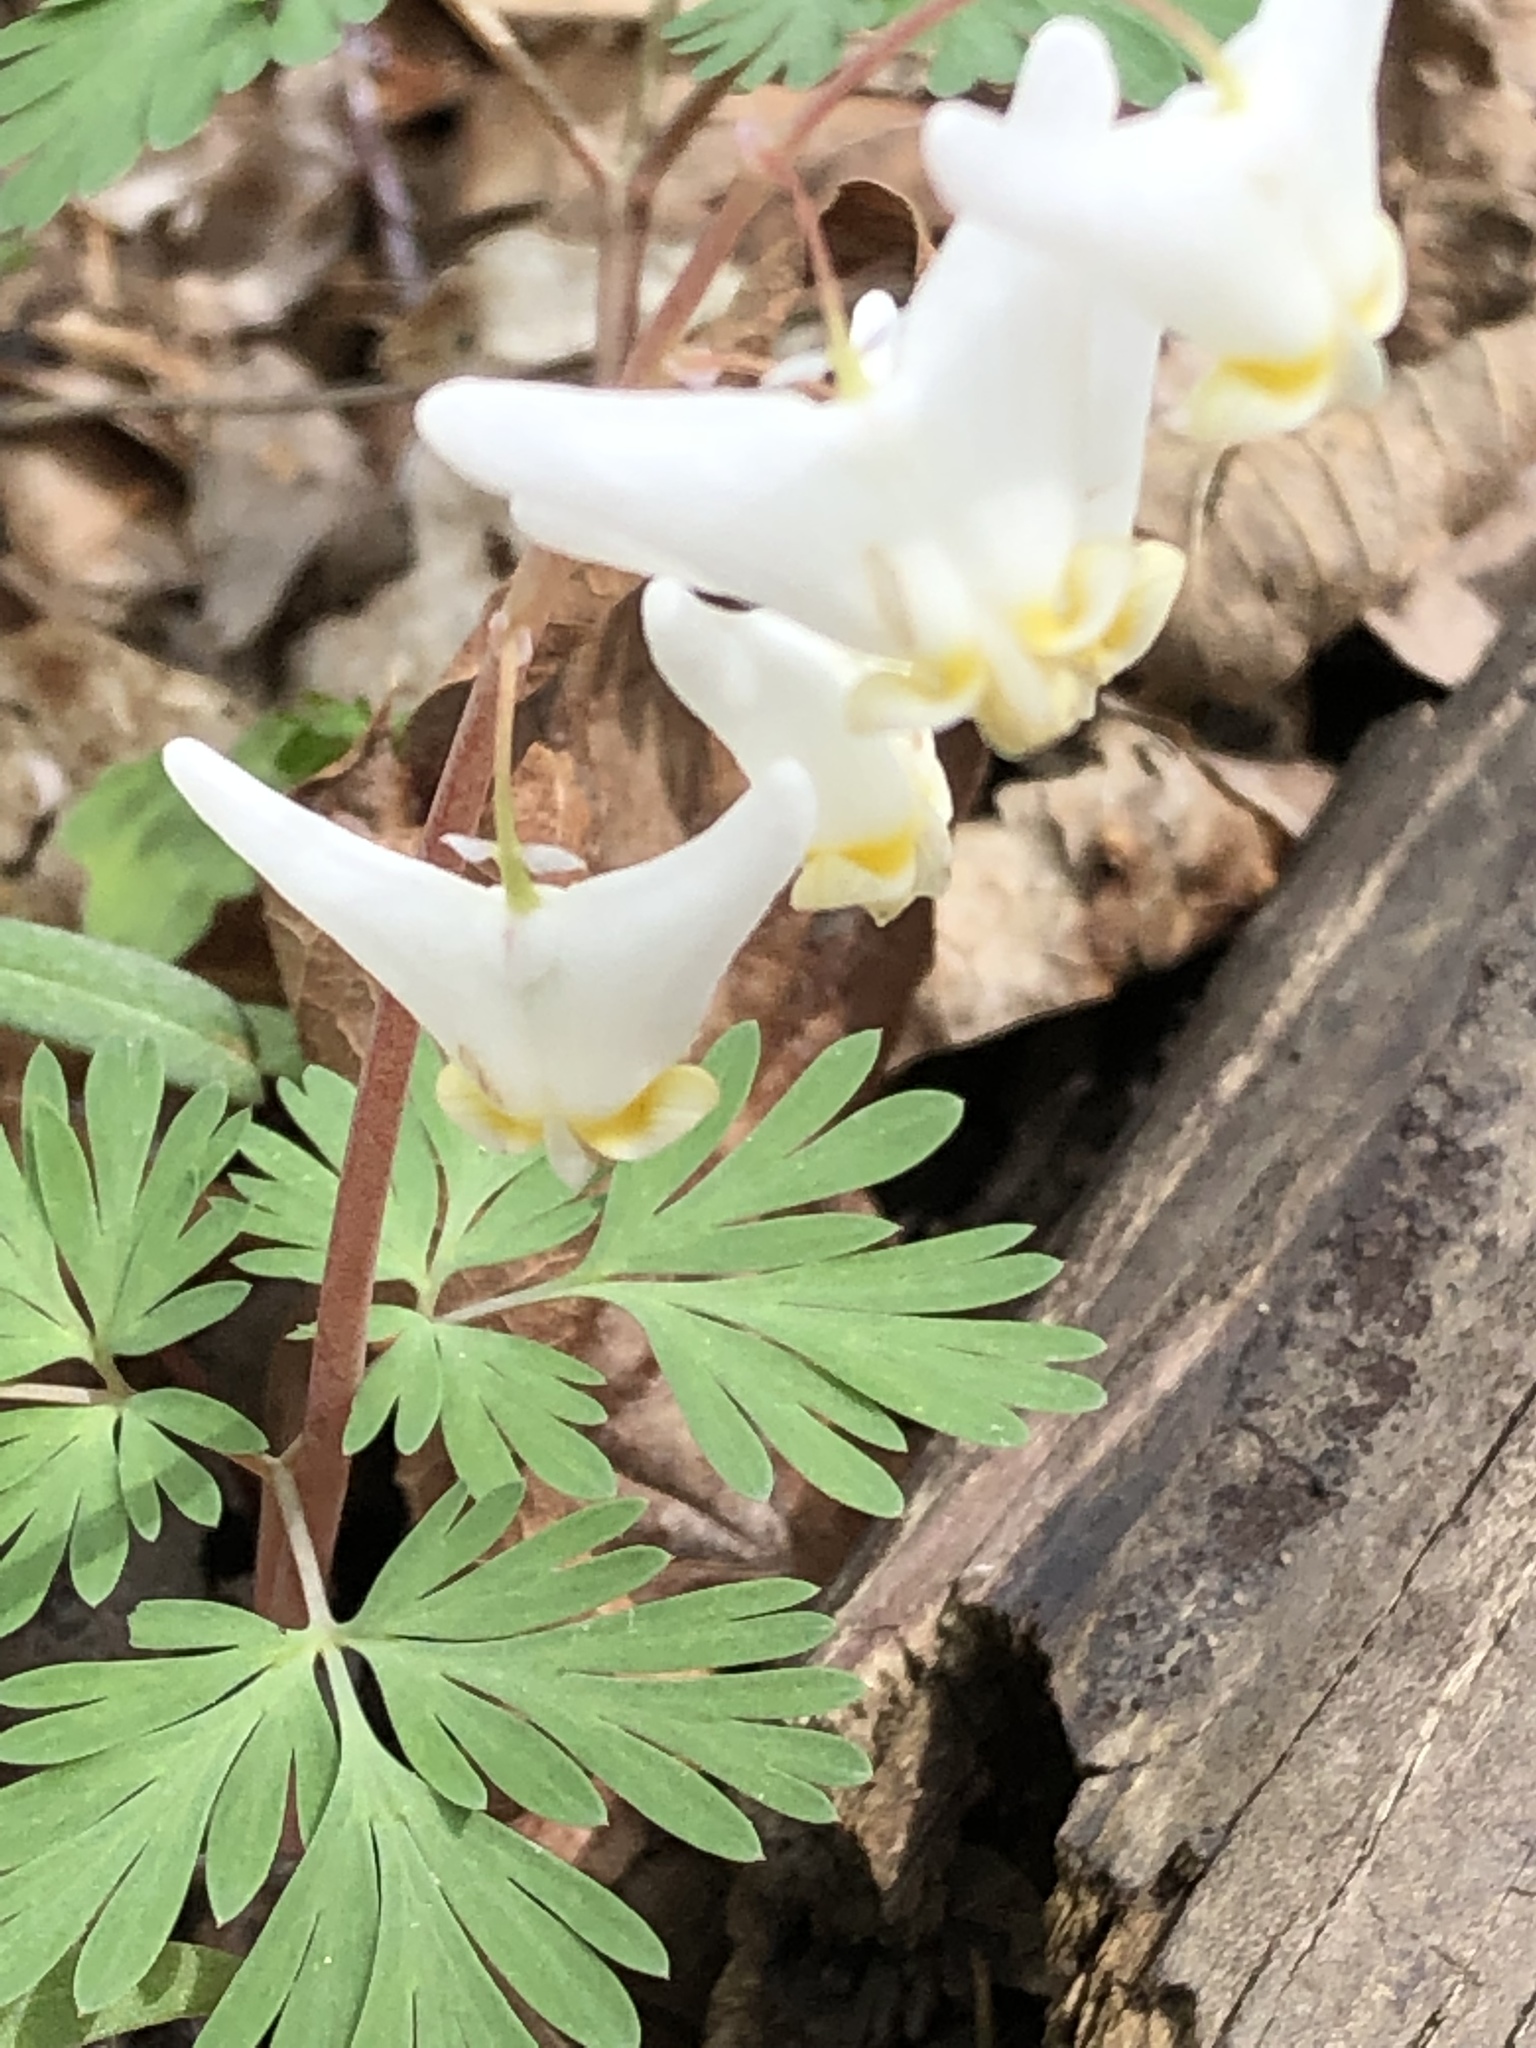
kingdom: Plantae
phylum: Tracheophyta
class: Magnoliopsida
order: Ranunculales
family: Papaveraceae
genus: Dicentra
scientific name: Dicentra cucullaria
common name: Dutchman's breeches
